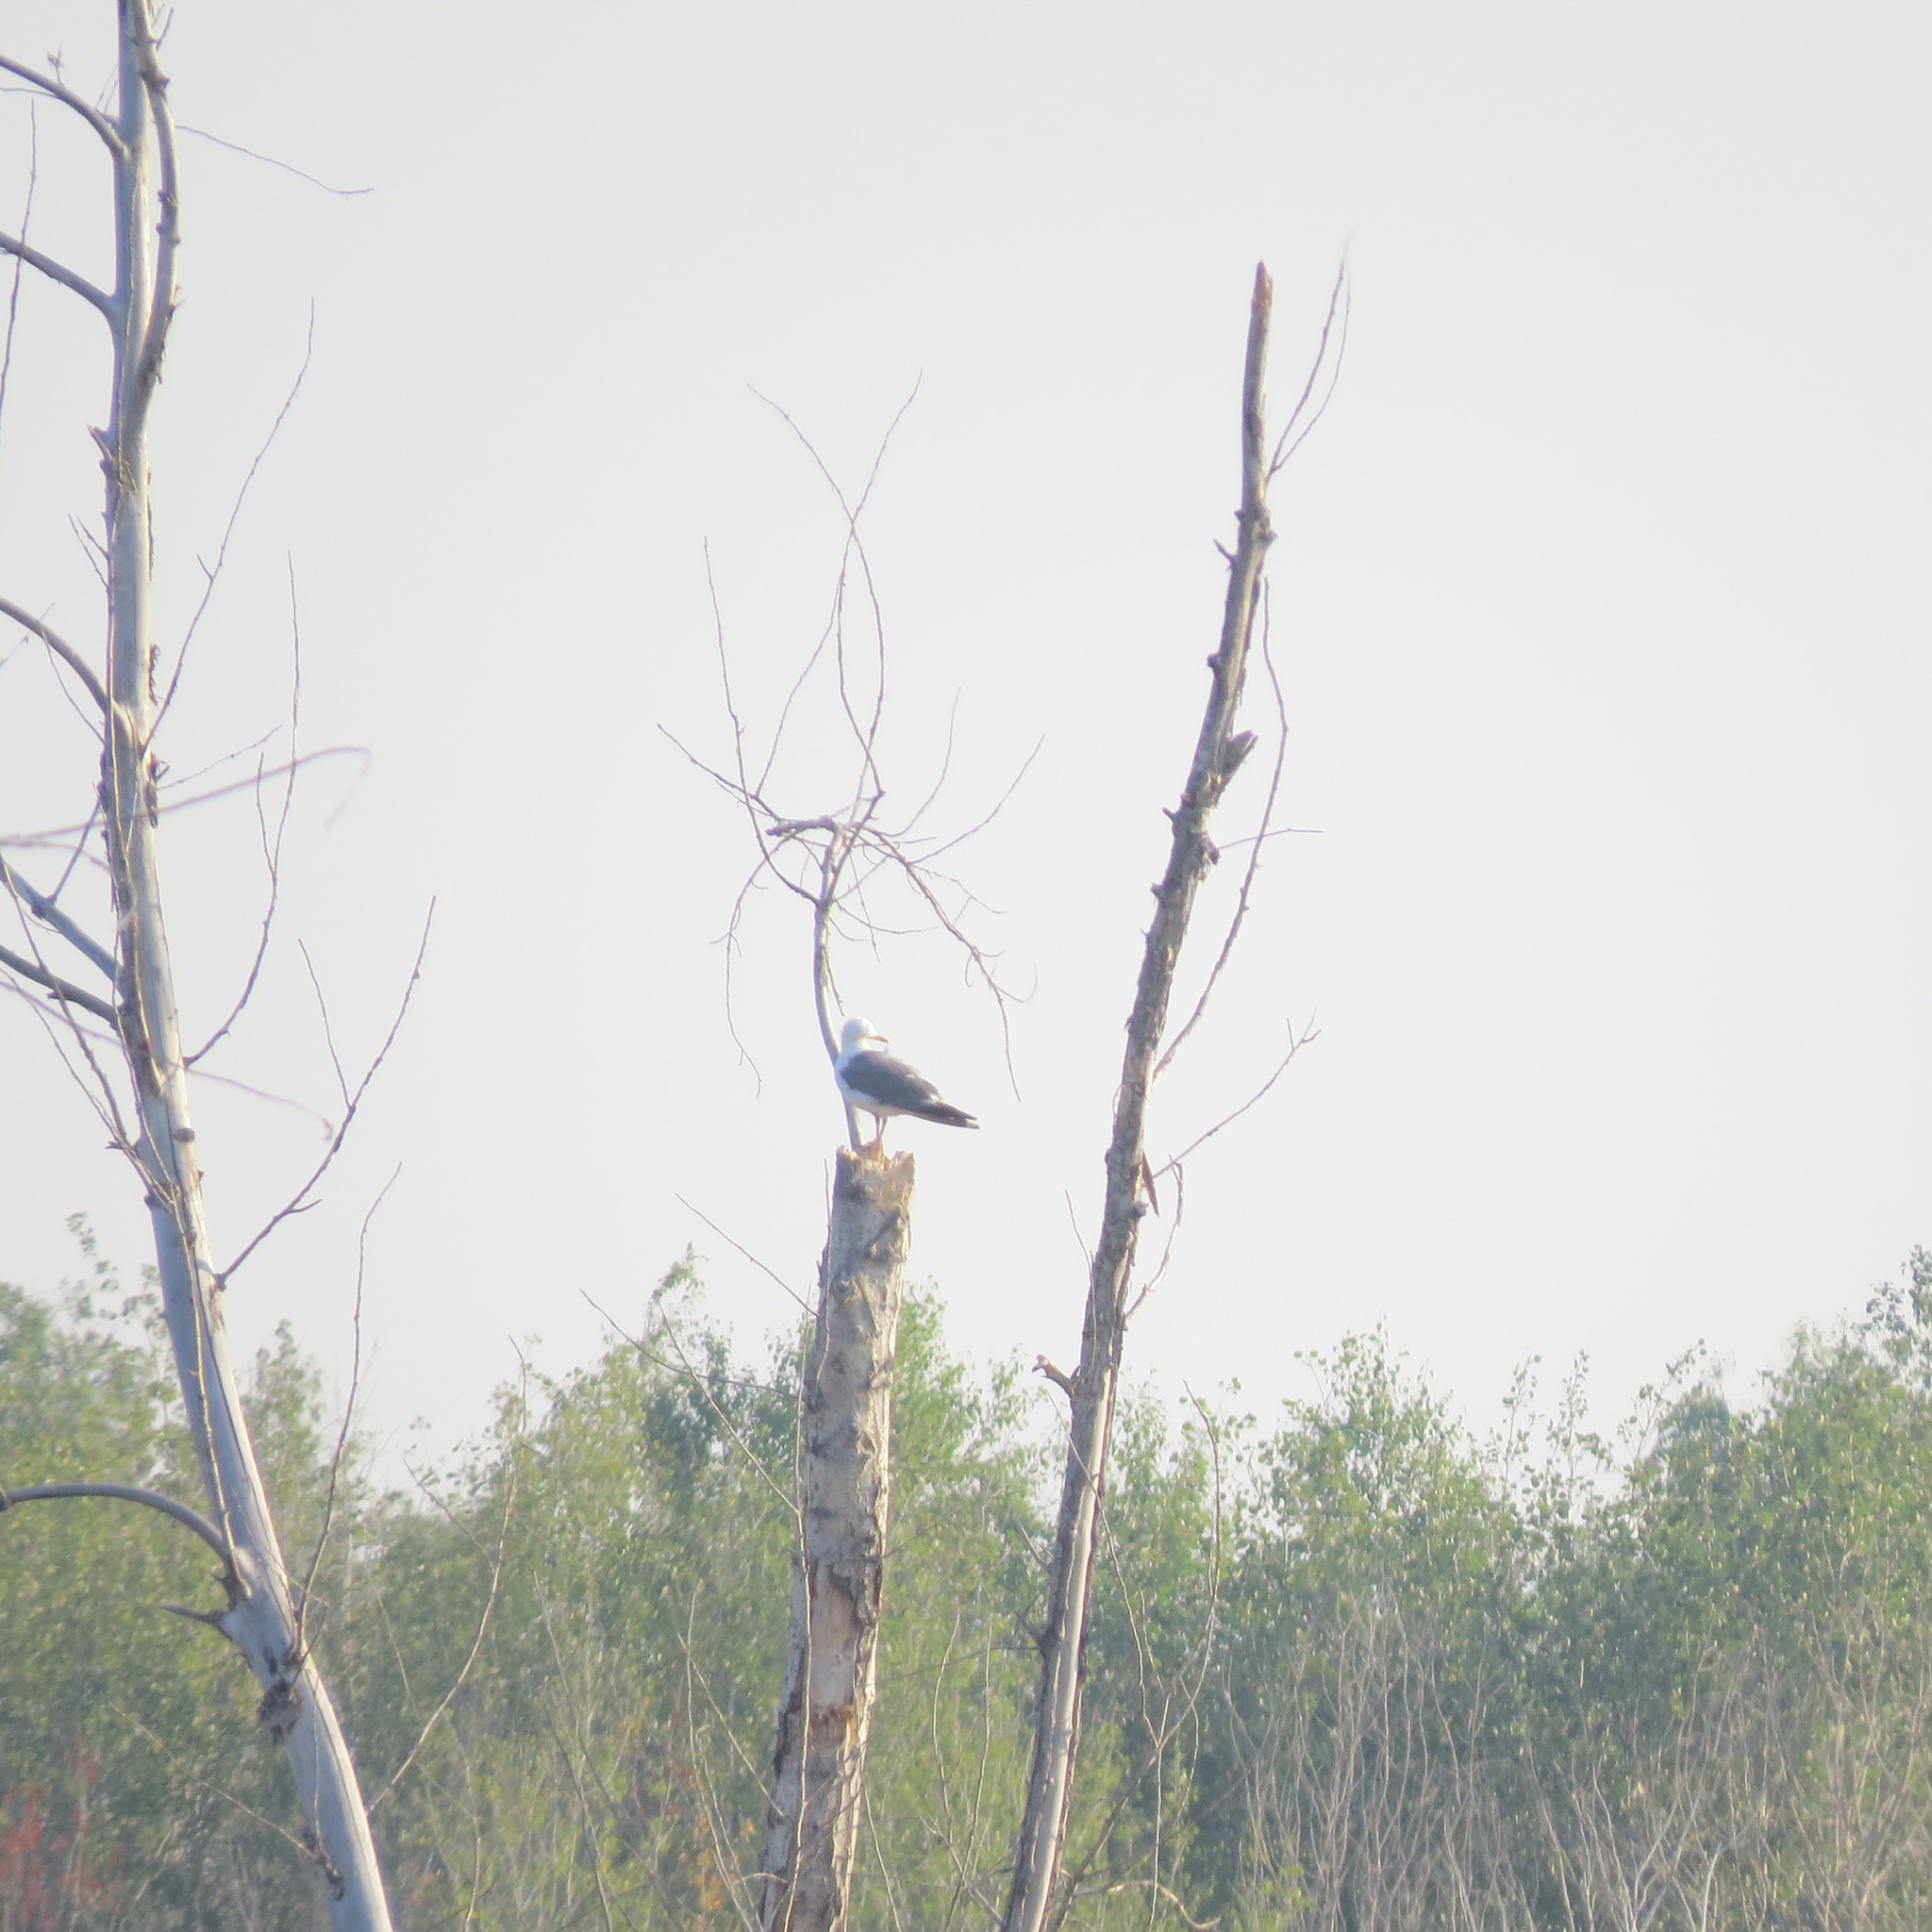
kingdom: Animalia
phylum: Chordata
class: Aves
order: Charadriiformes
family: Laridae
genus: Larus
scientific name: Larus fuscus
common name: Lesser black-backed gull
